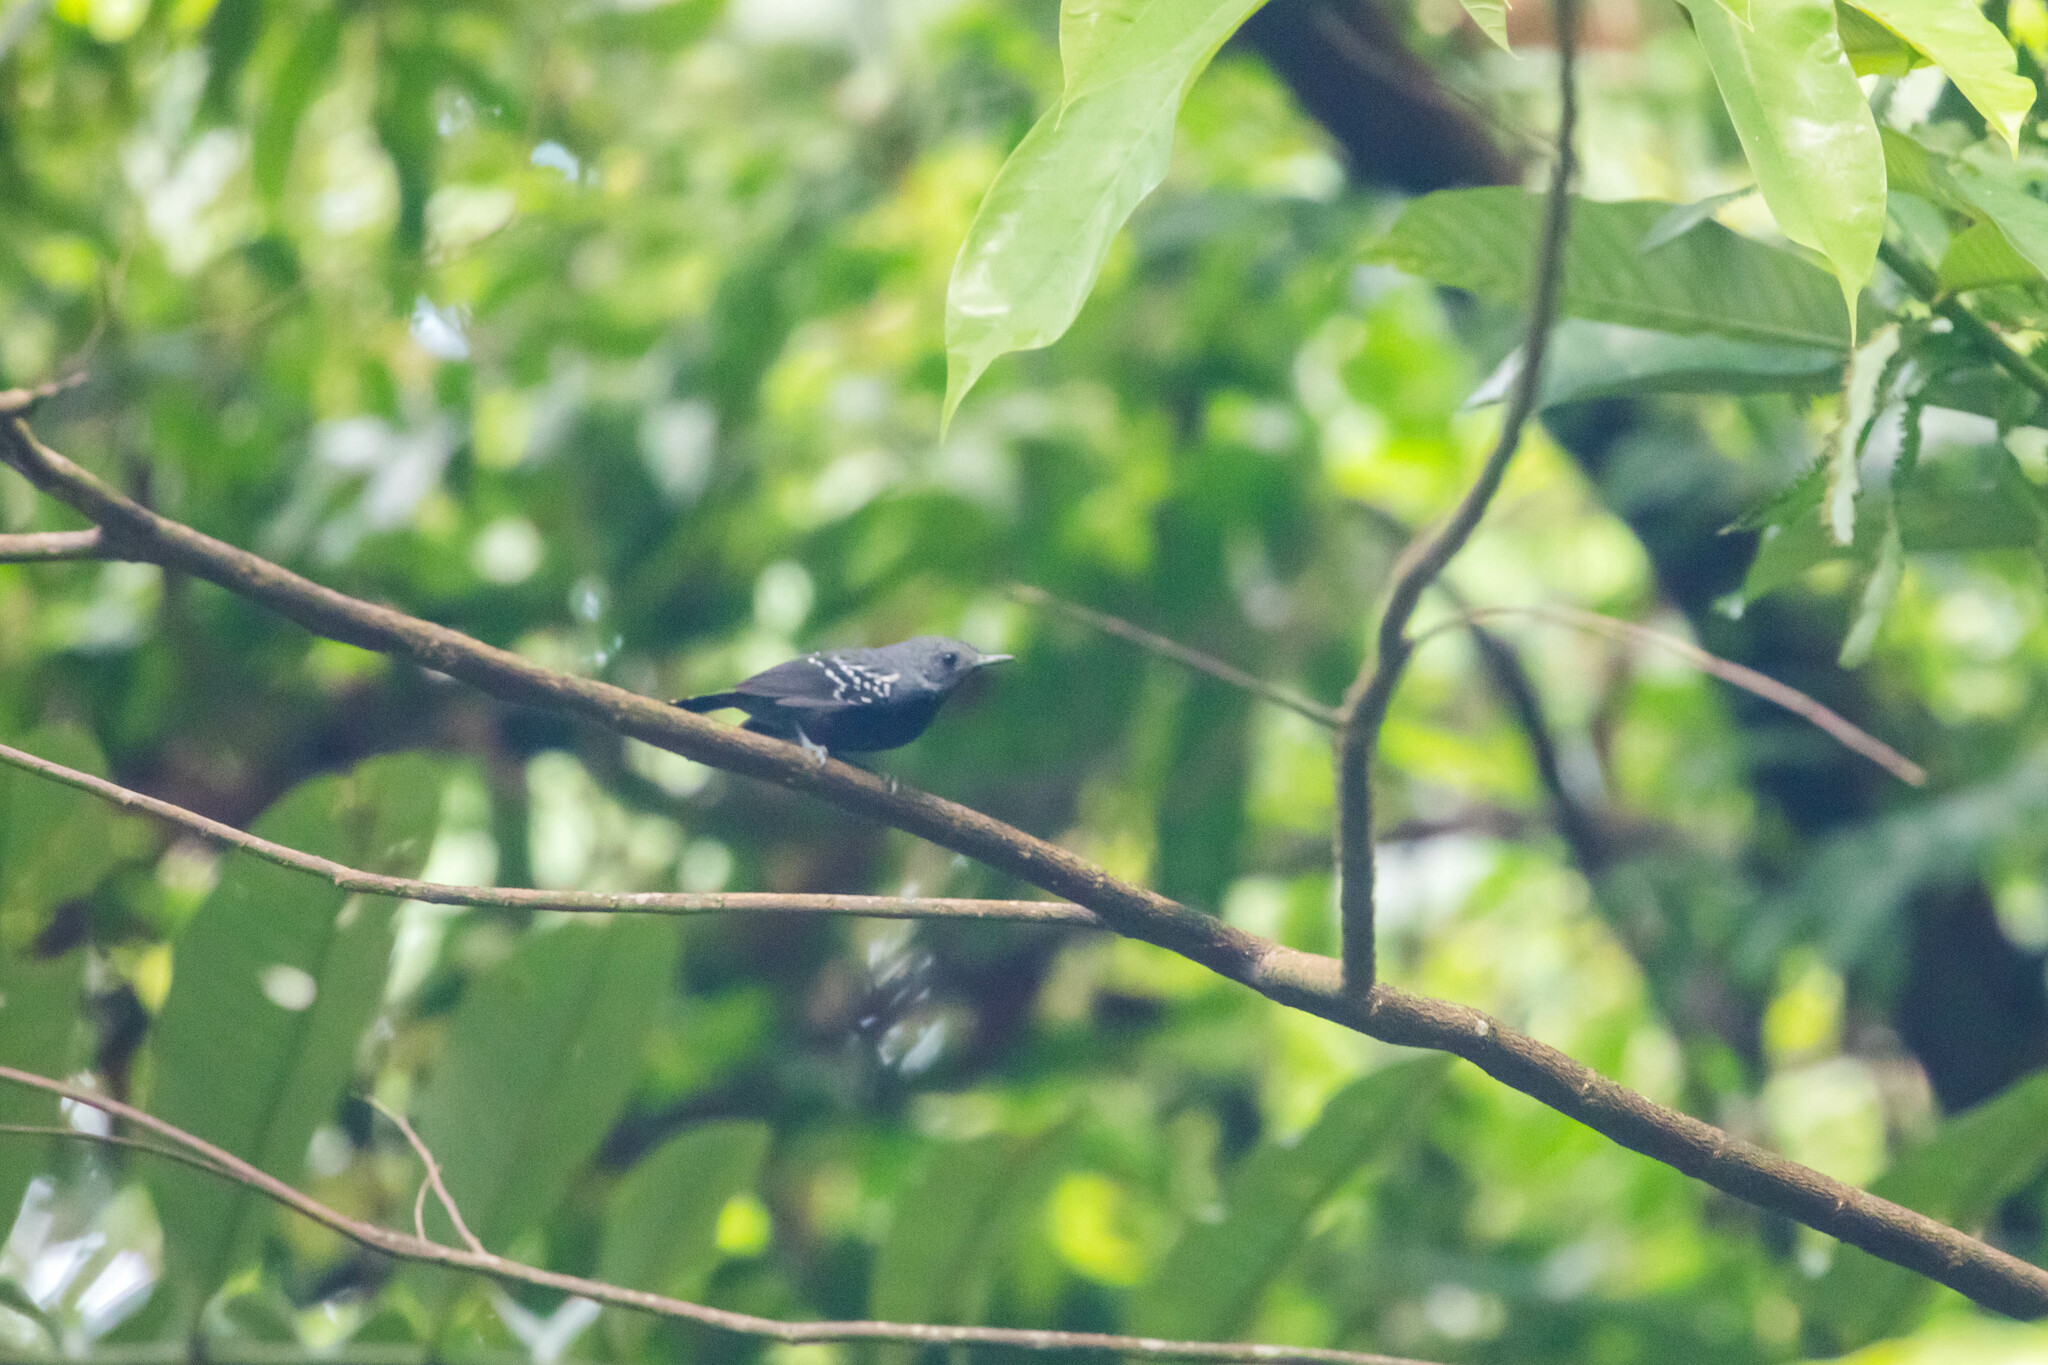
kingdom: Animalia
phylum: Chordata
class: Aves
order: Passeriformes
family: Thamnophilidae
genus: Myrmotherula
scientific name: Myrmotherula axillaris
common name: White-flanked antwren
